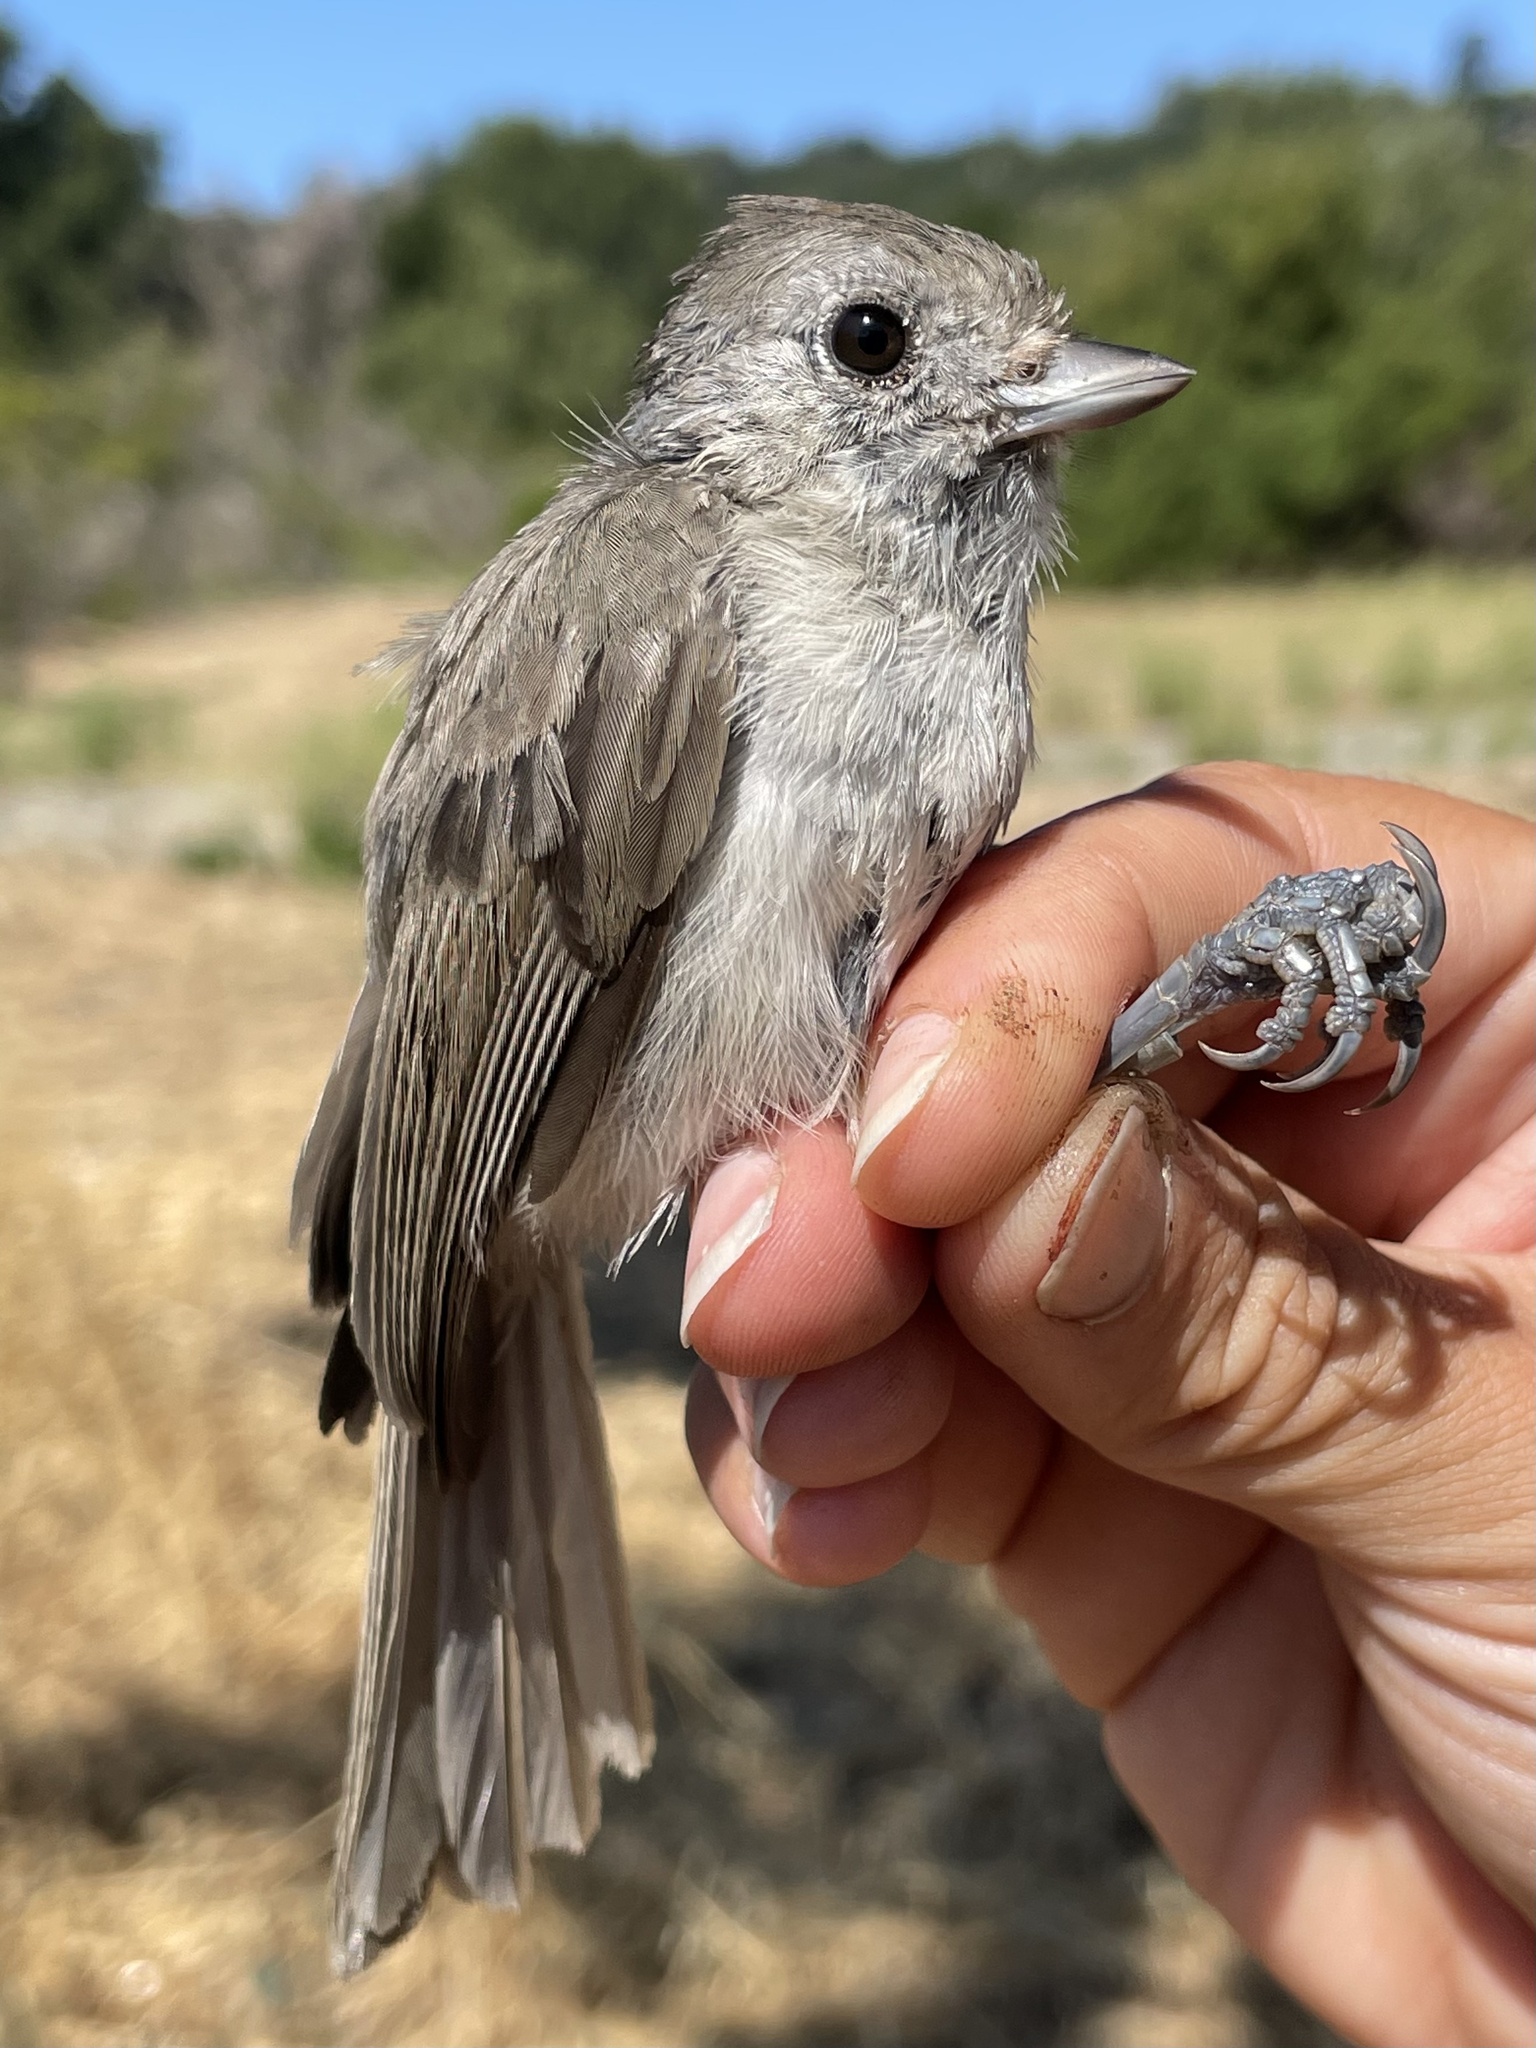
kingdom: Animalia
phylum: Chordata
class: Aves
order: Passeriformes
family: Paridae
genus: Baeolophus
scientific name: Baeolophus inornatus
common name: Oak titmouse
